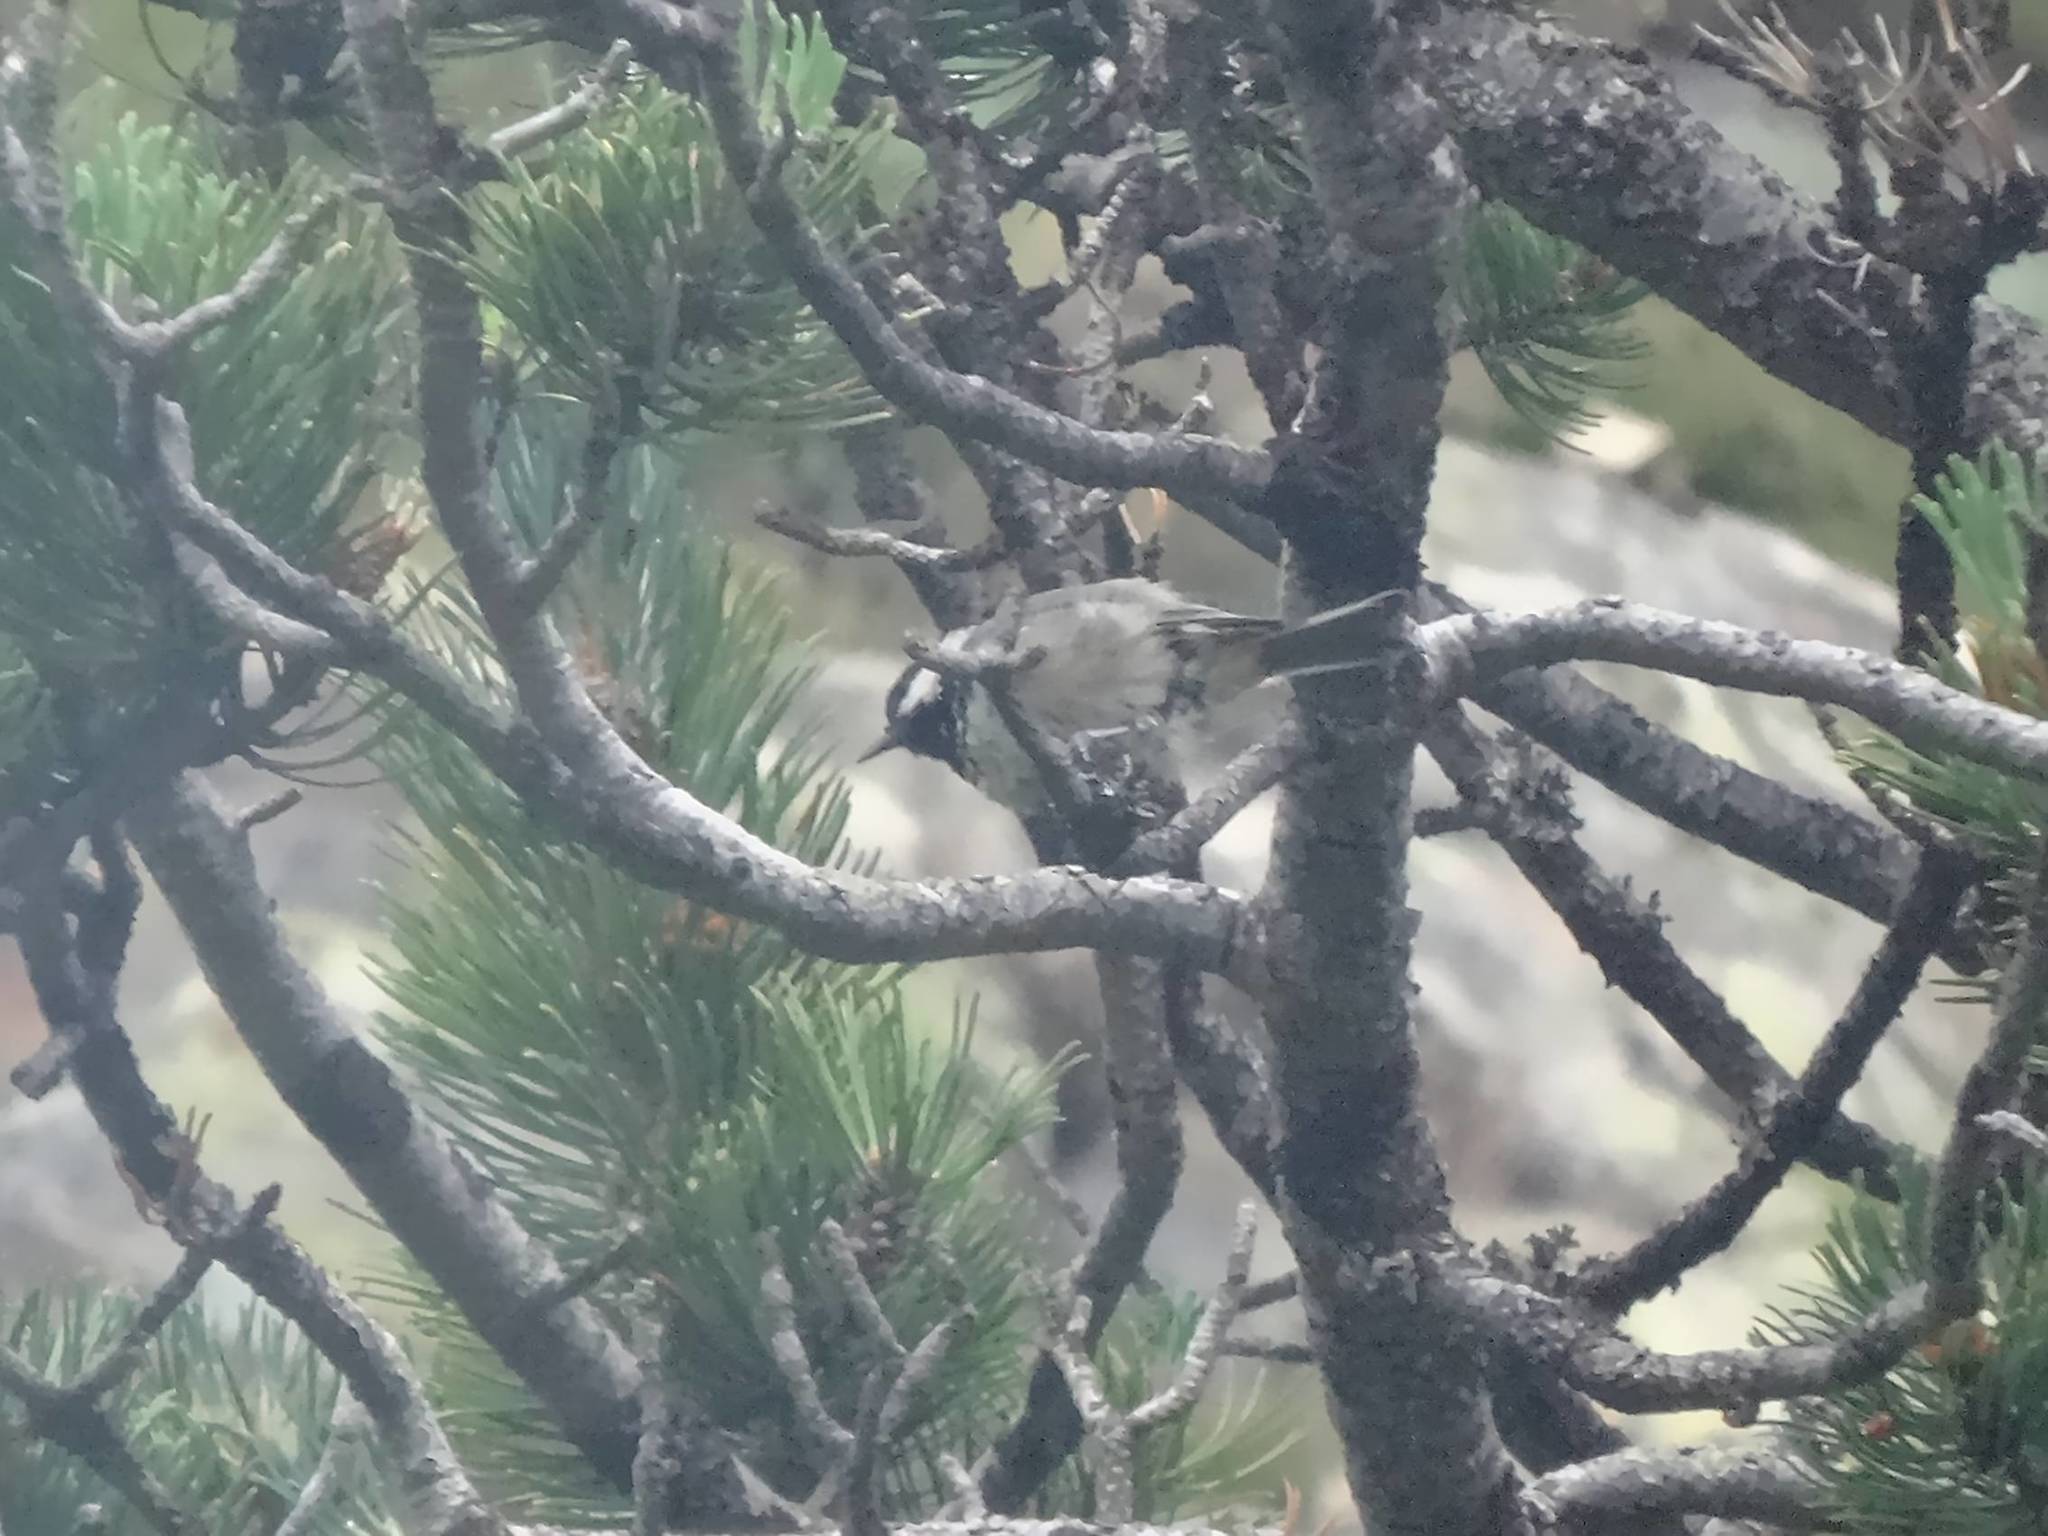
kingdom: Animalia
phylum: Chordata
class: Aves
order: Passeriformes
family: Paridae
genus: Periparus
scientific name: Periparus ater
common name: Coal tit
